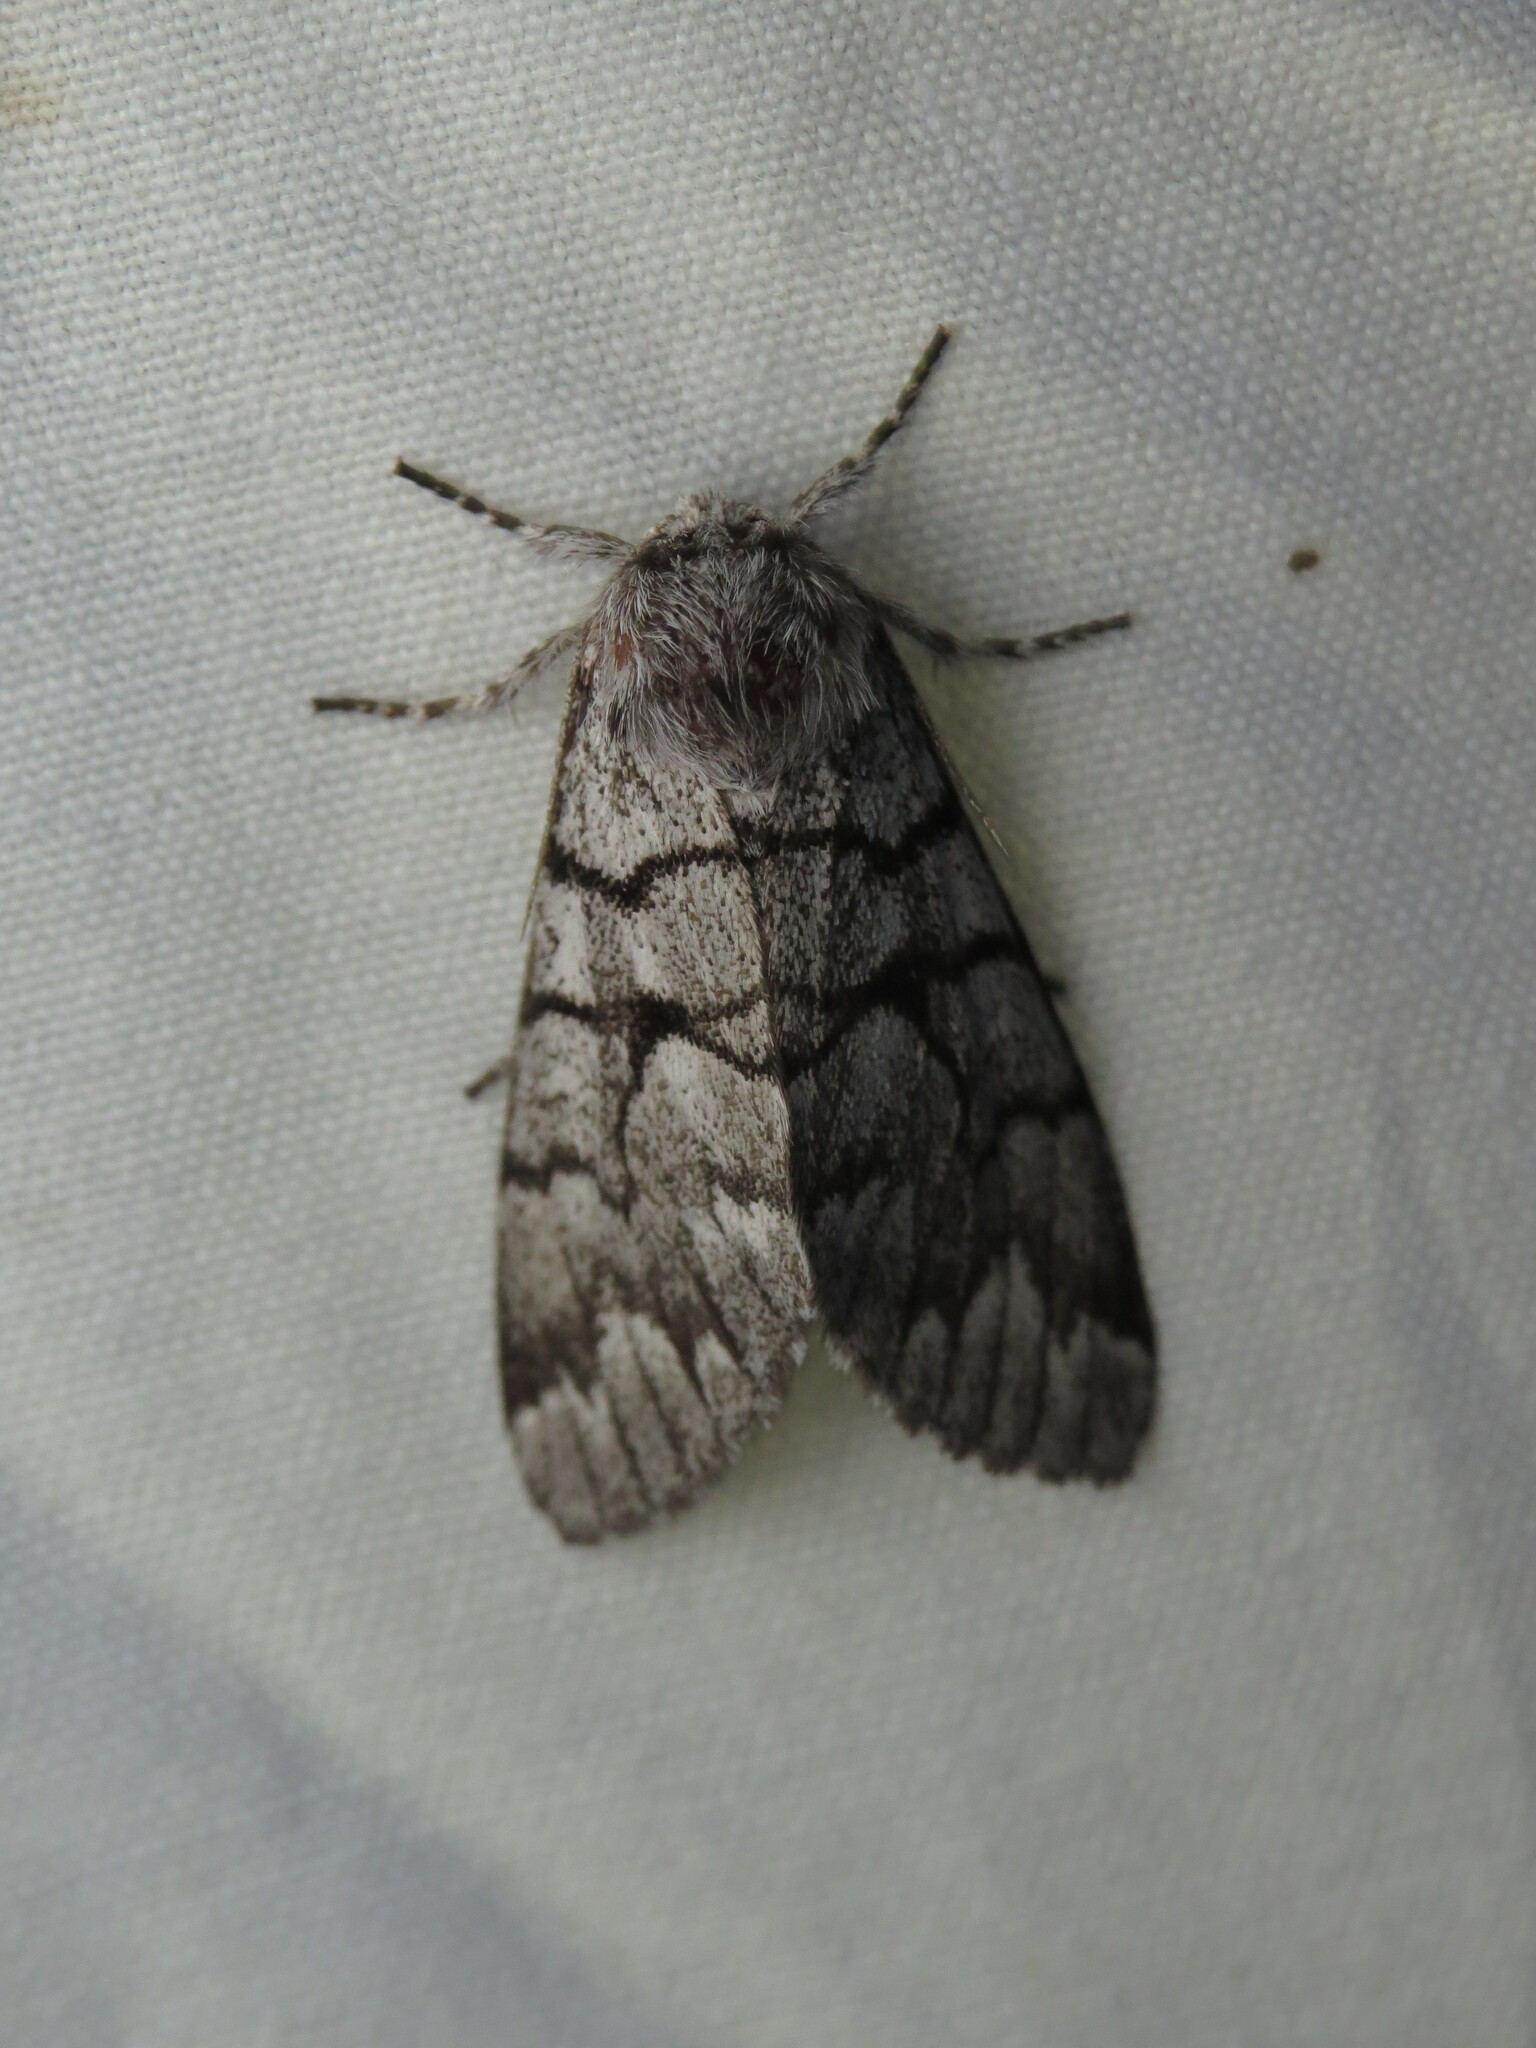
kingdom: Animalia
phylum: Arthropoda
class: Insecta
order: Lepidoptera
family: Noctuidae
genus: Panthea
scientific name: Panthea furcilla
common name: Eastern panthea moth
